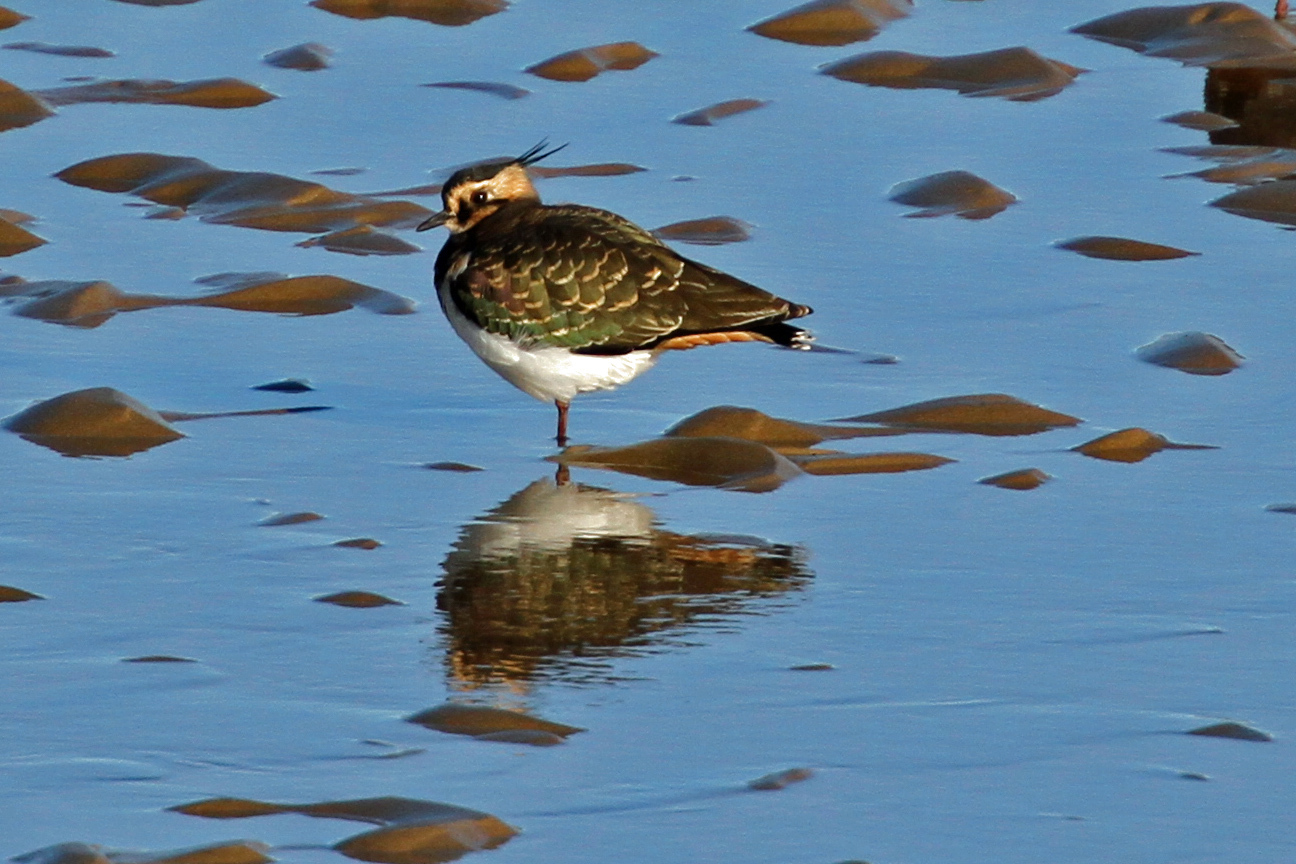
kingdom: Animalia
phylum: Chordata
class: Aves
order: Charadriiformes
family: Charadriidae
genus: Vanellus
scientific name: Vanellus vanellus
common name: Northern lapwing
